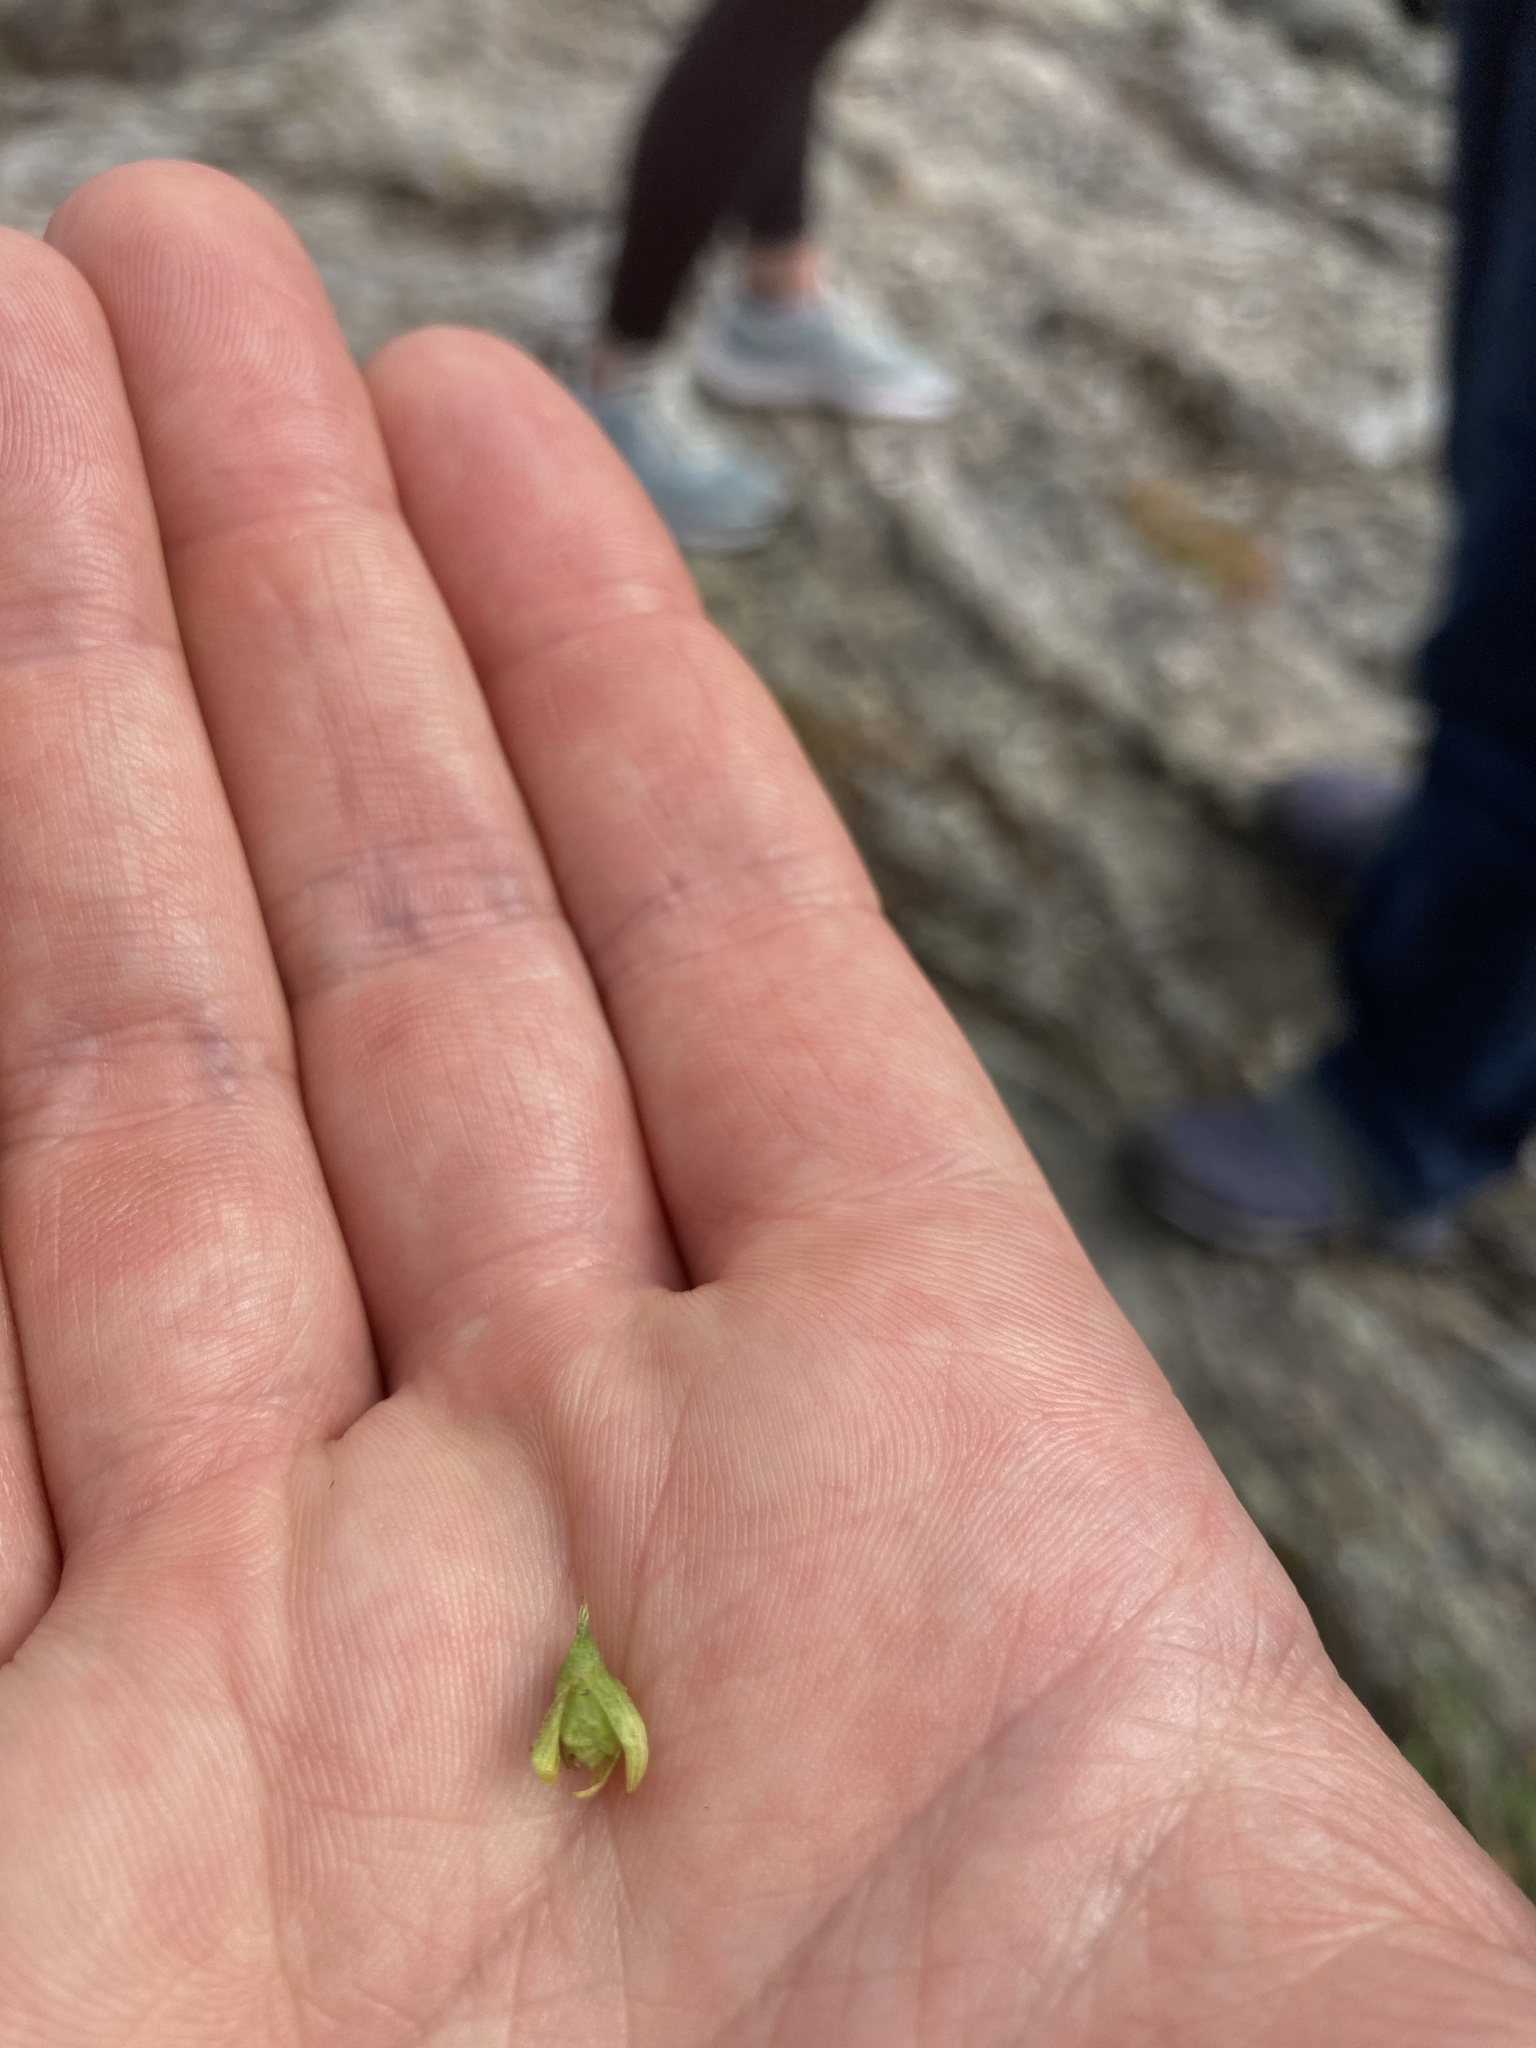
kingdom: Plantae
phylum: Tracheophyta
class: Magnoliopsida
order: Brassicales
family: Limnanthaceae
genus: Limnanthes
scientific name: Limnanthes macounii
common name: Macoun's meadowfoam
